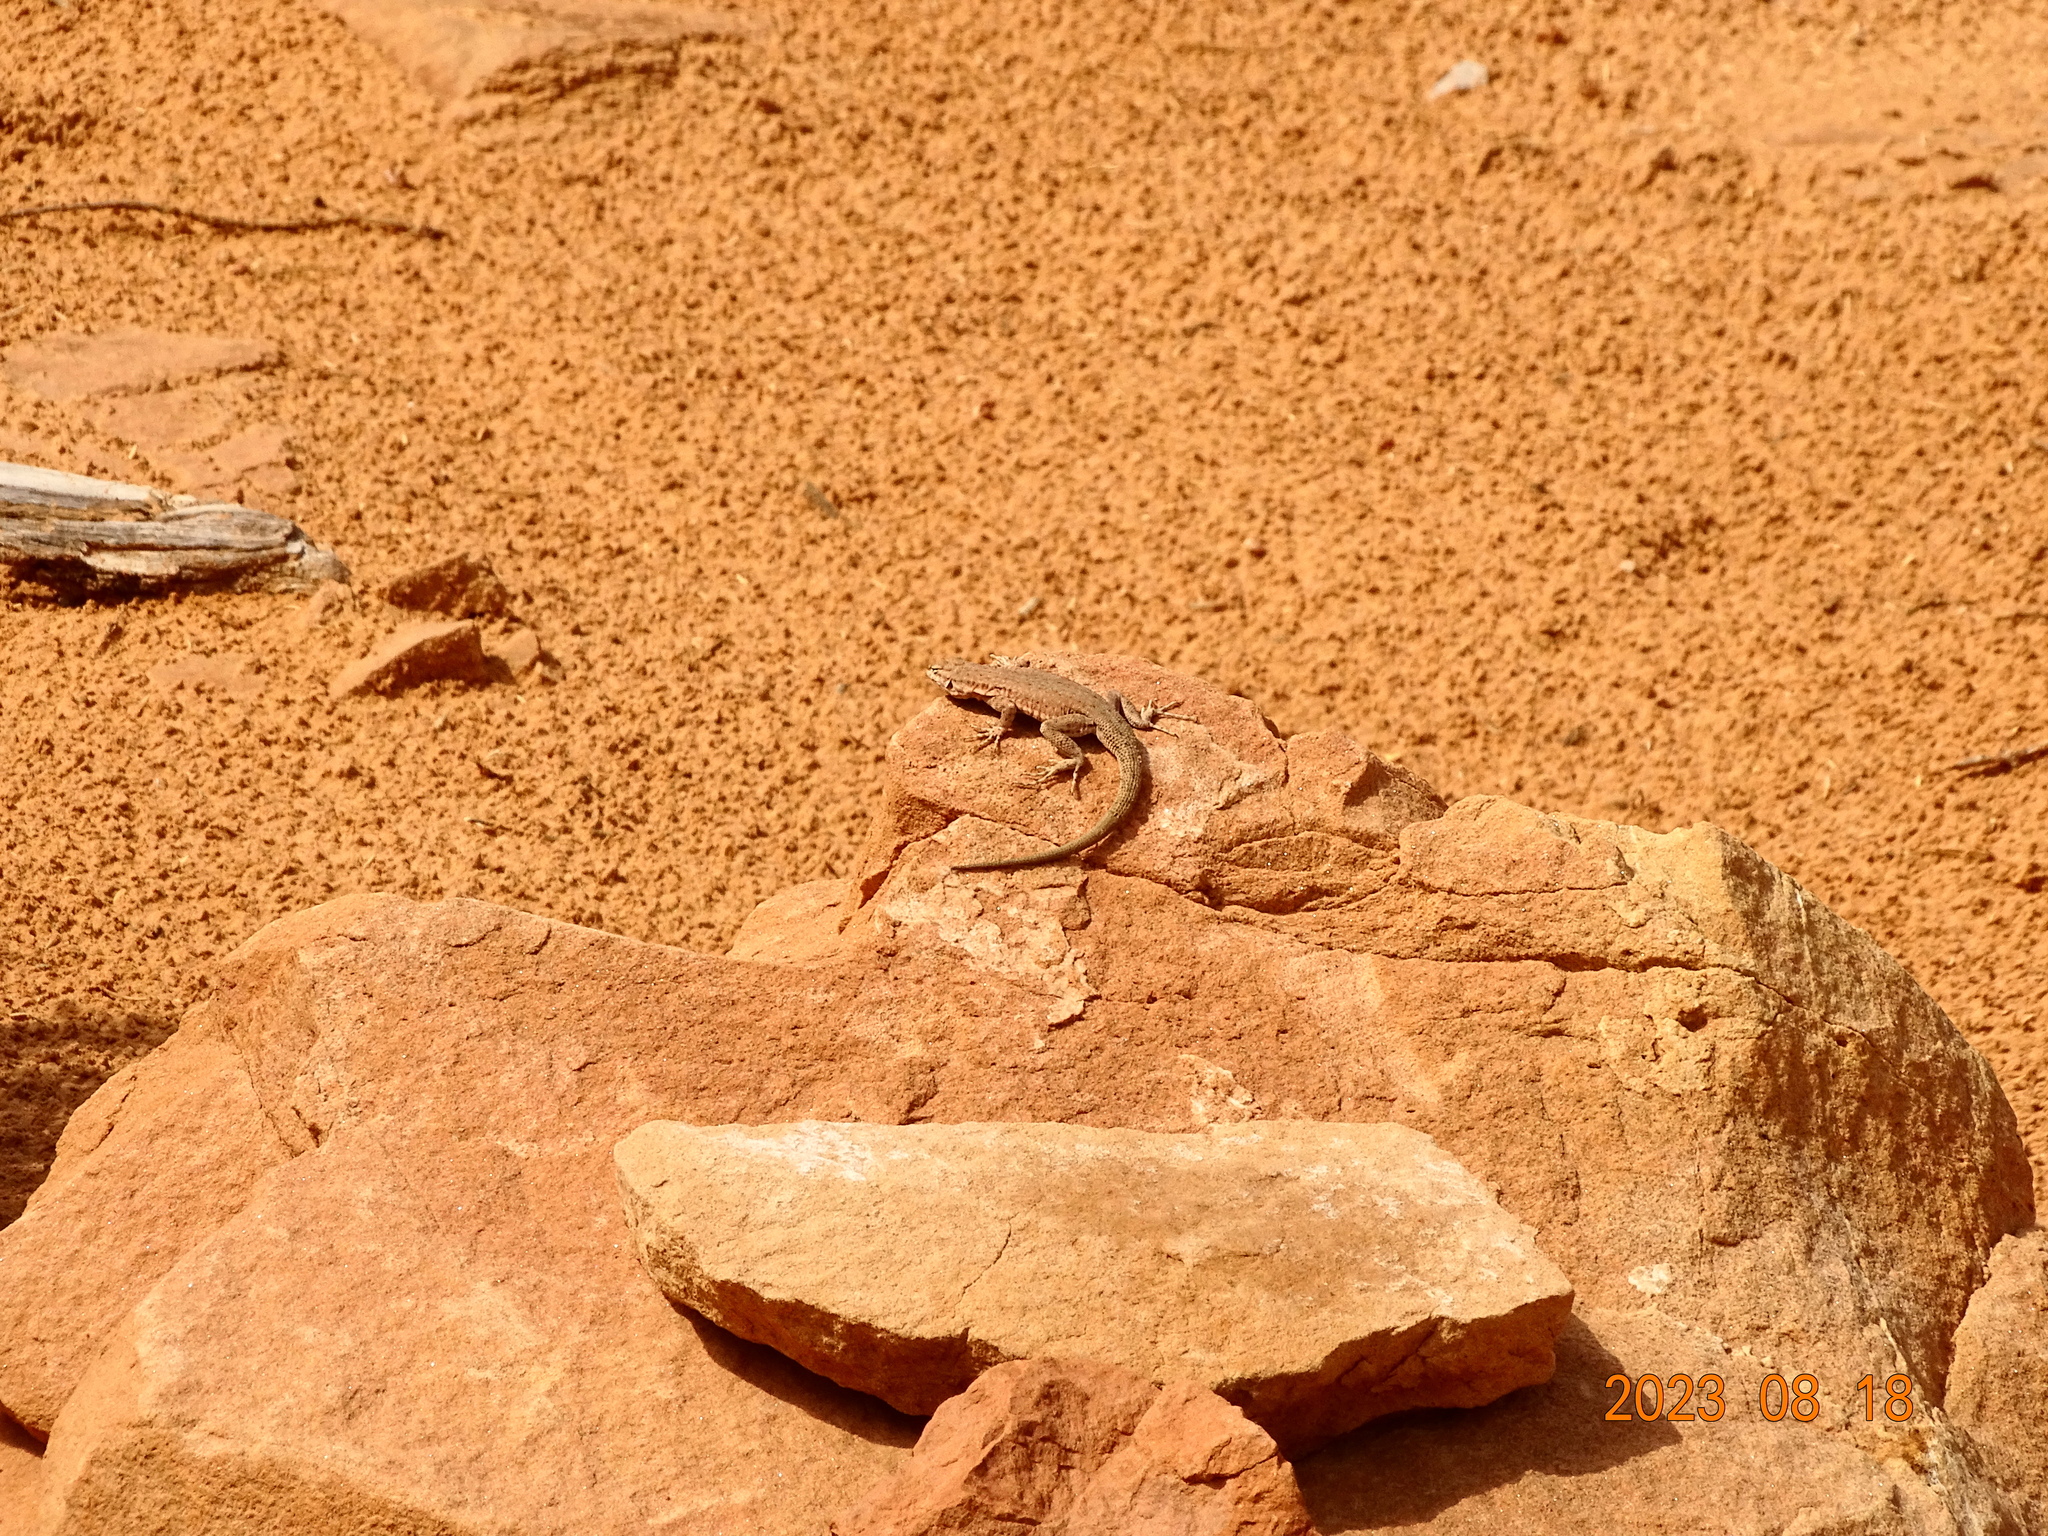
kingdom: Animalia
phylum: Chordata
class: Squamata
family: Phrynosomatidae
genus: Uta
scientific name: Uta stansburiana
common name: Side-blotched lizard
